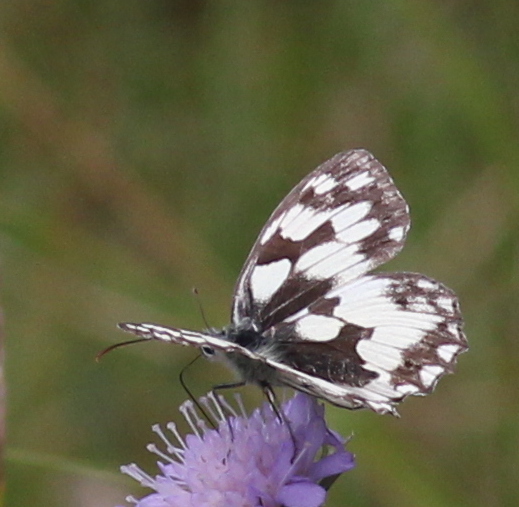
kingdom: Animalia
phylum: Arthropoda
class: Insecta
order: Lepidoptera
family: Nymphalidae
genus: Melanargia
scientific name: Melanargia galathea
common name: Marbled white
